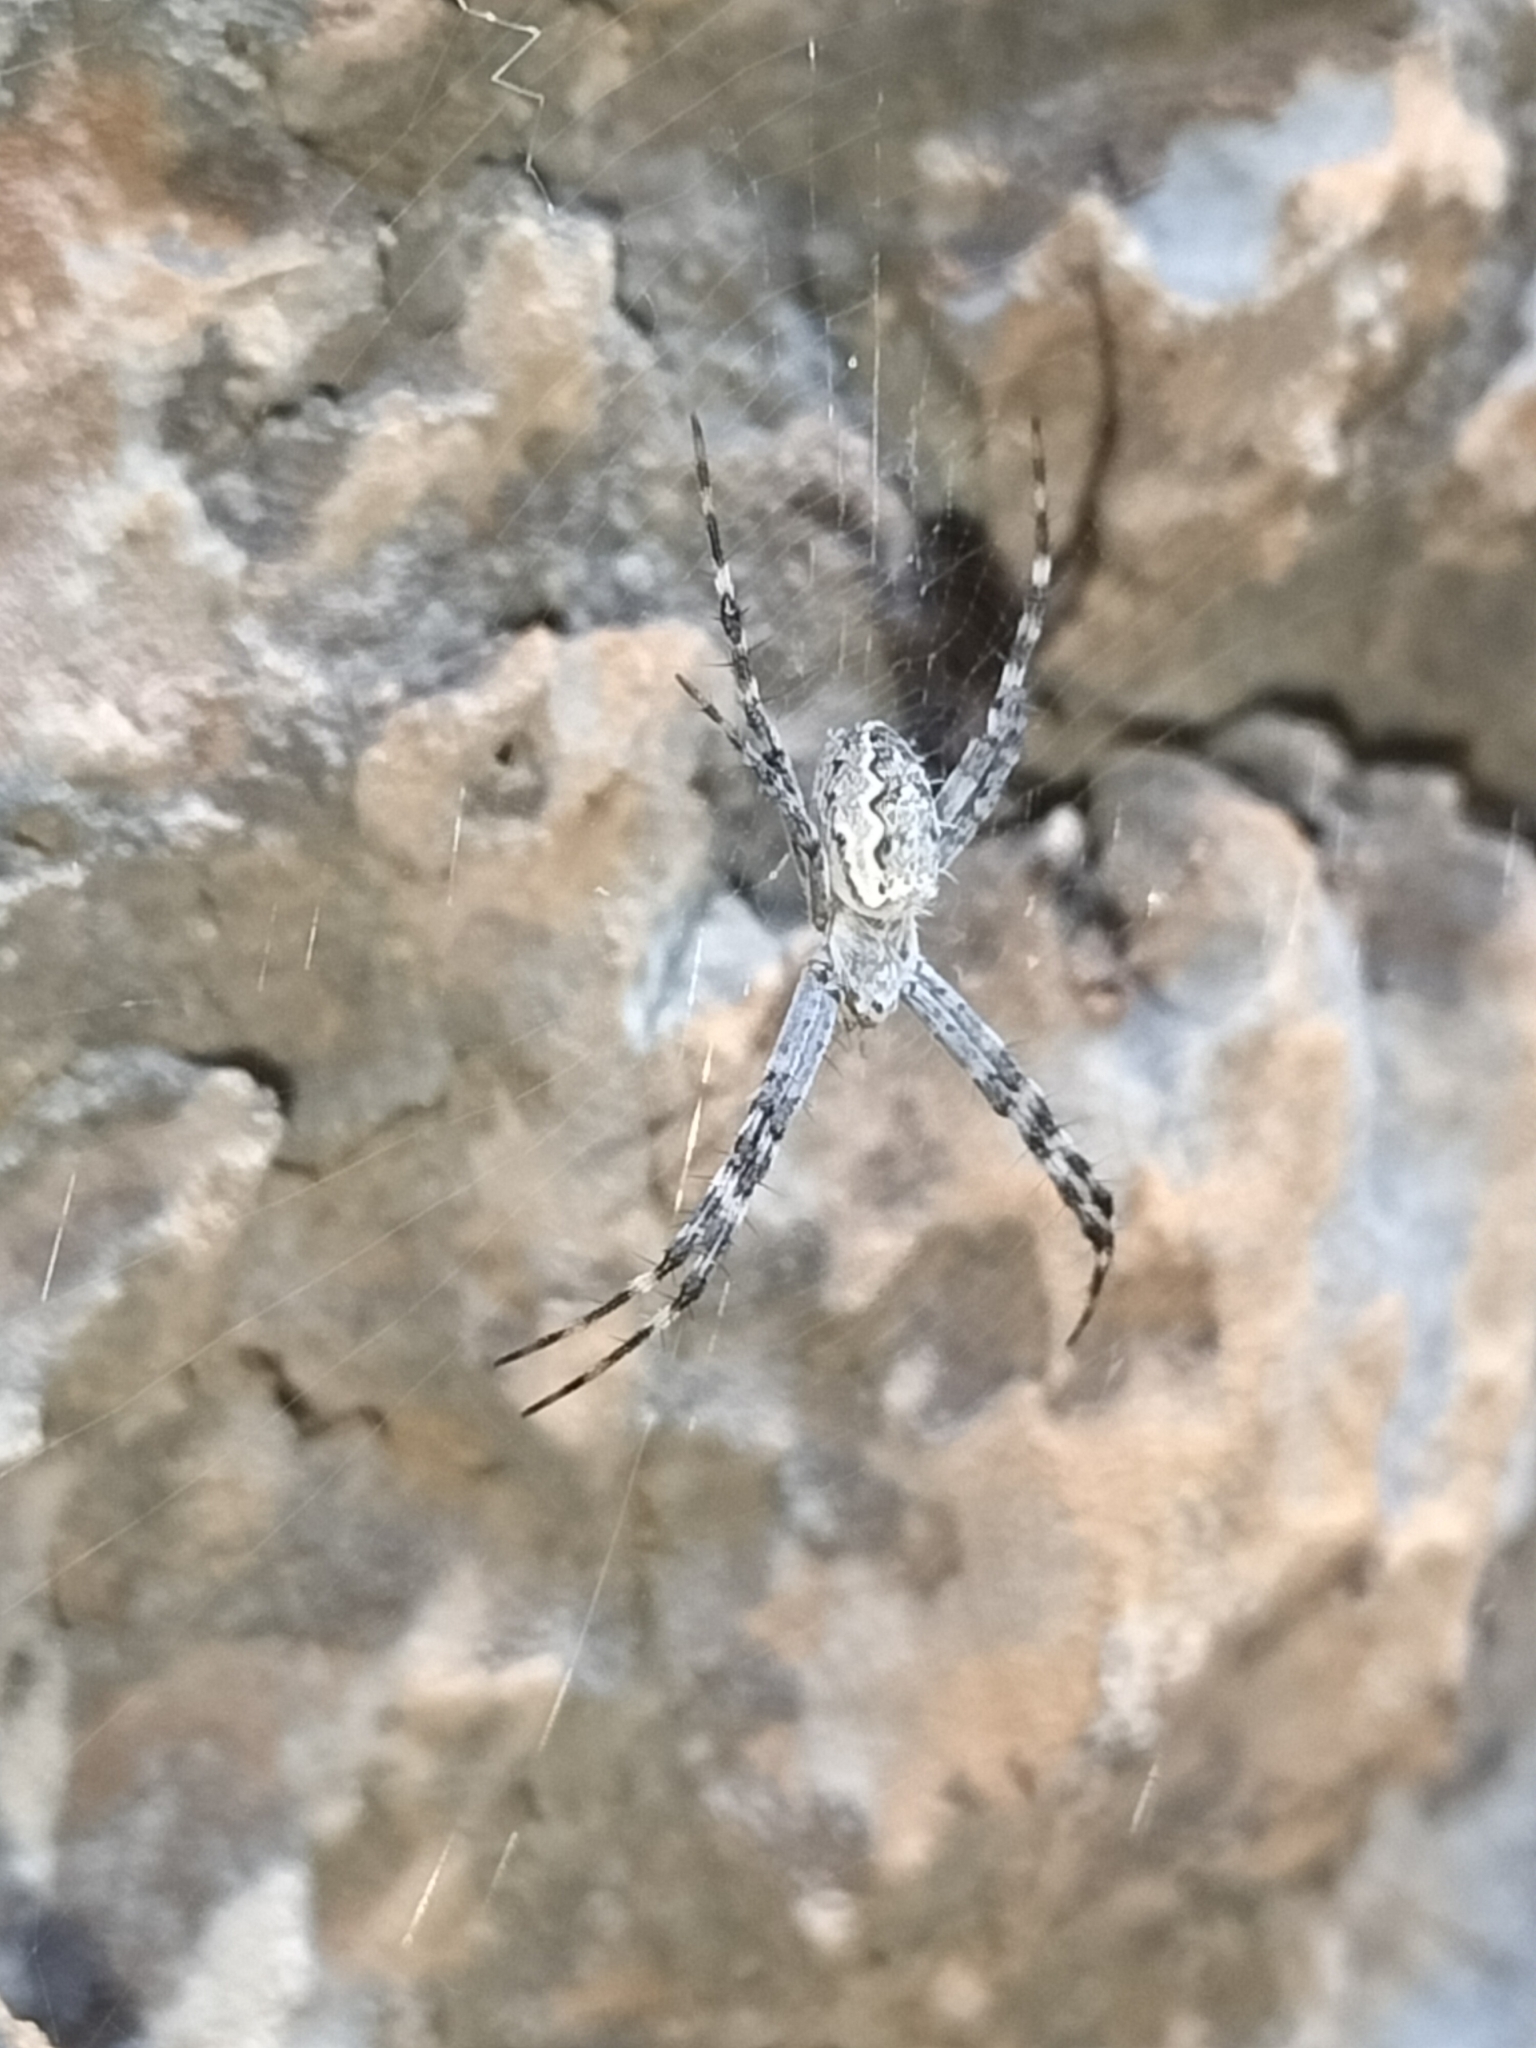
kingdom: Animalia
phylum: Arthropoda
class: Arachnida
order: Araneae
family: Araneidae
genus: Argiope
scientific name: Argiope mascordi
